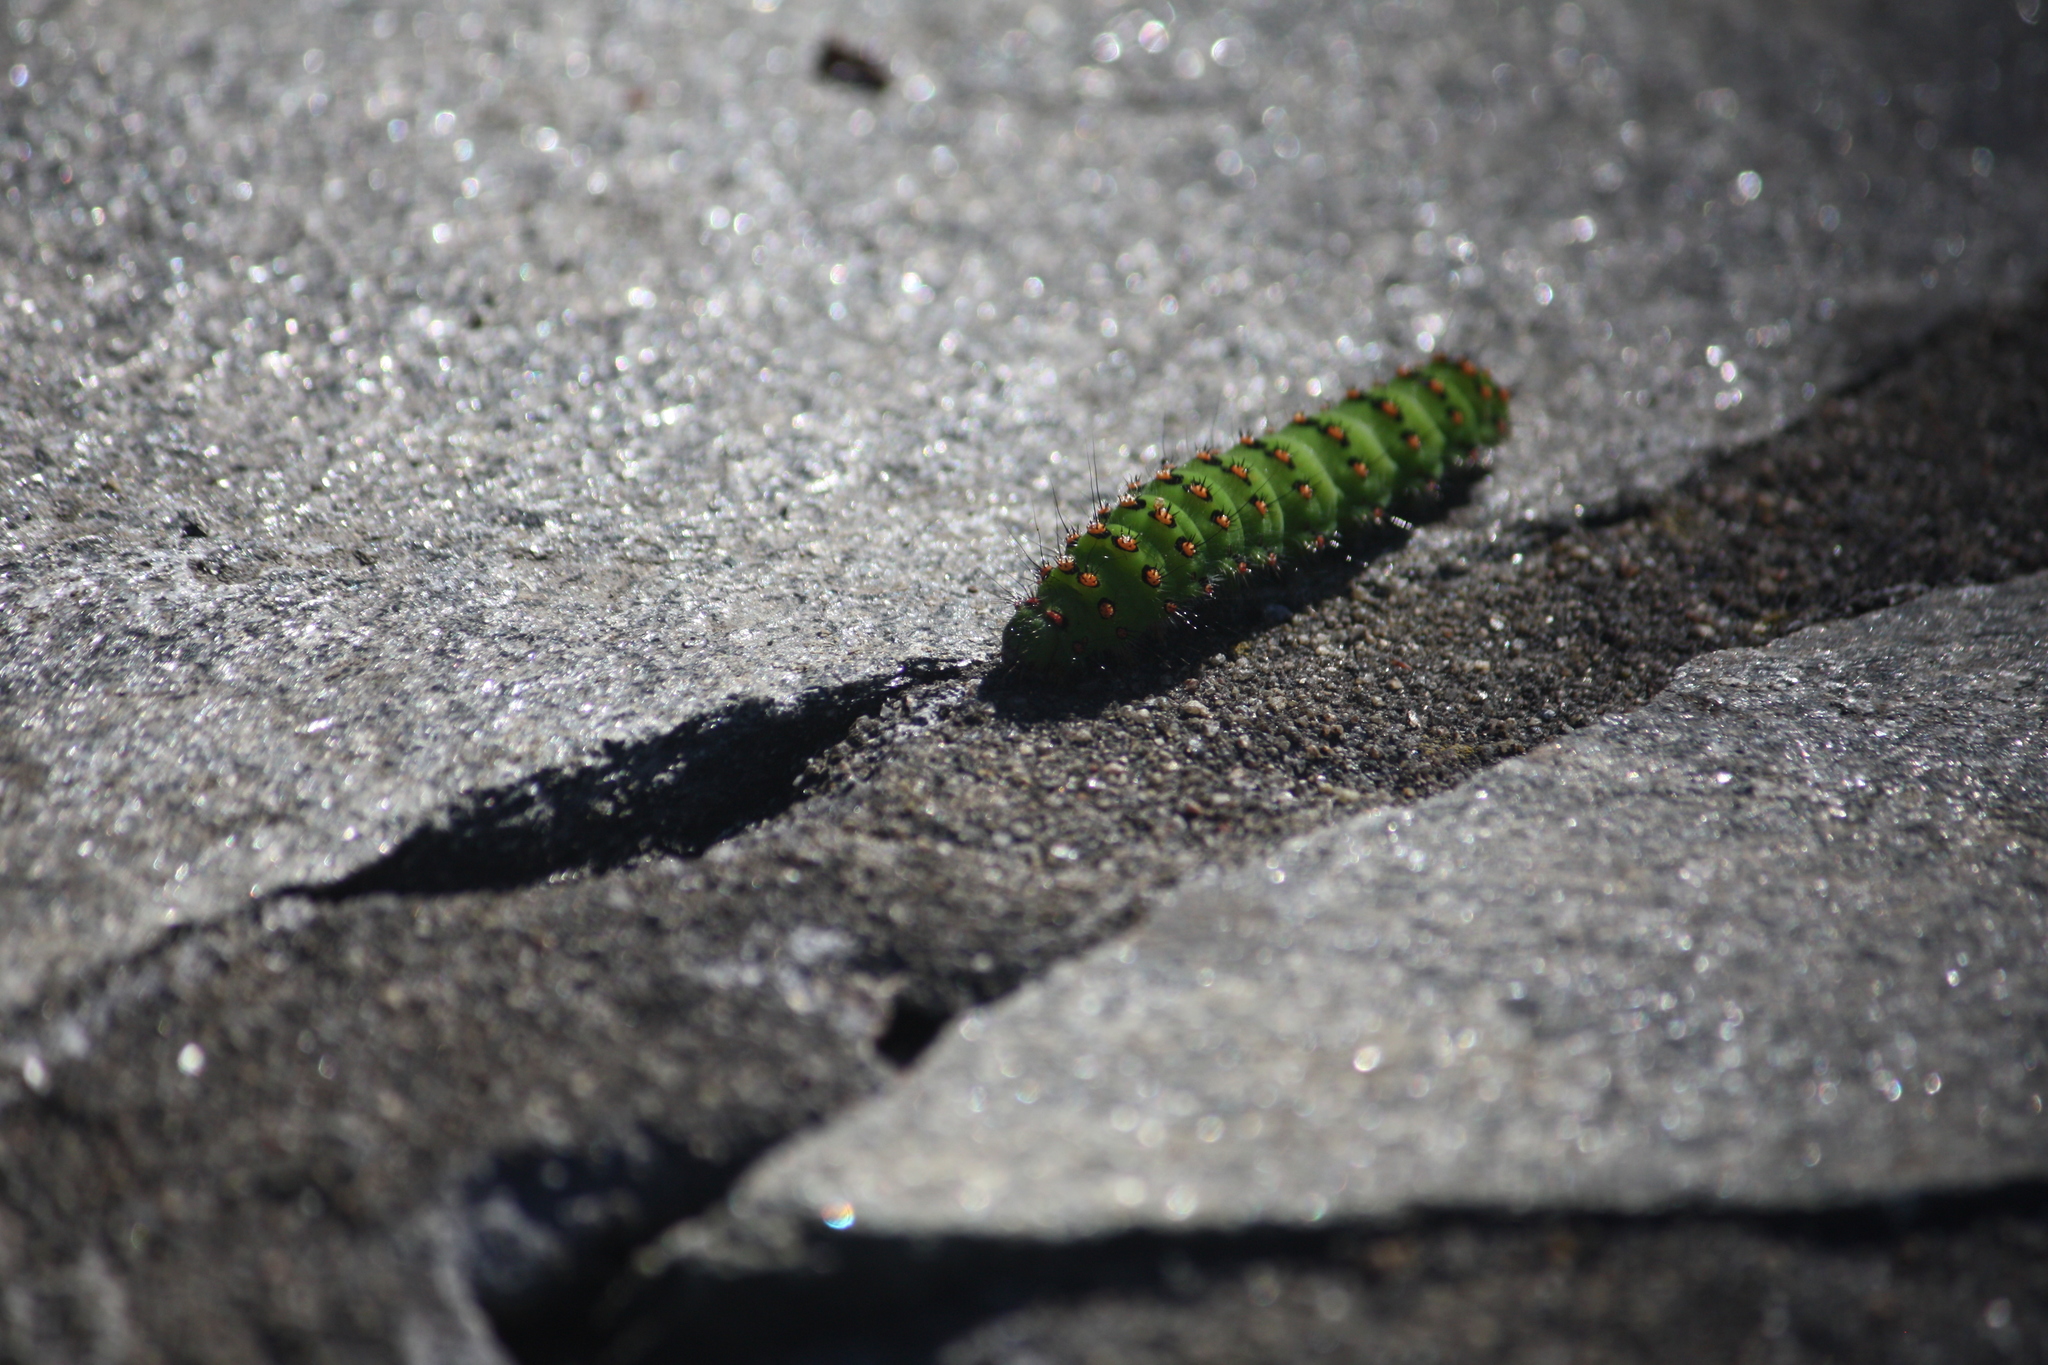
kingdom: Animalia
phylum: Arthropoda
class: Insecta
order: Lepidoptera
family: Saturniidae
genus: Saturnia
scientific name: Saturnia pavonia
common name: Emperor moth
